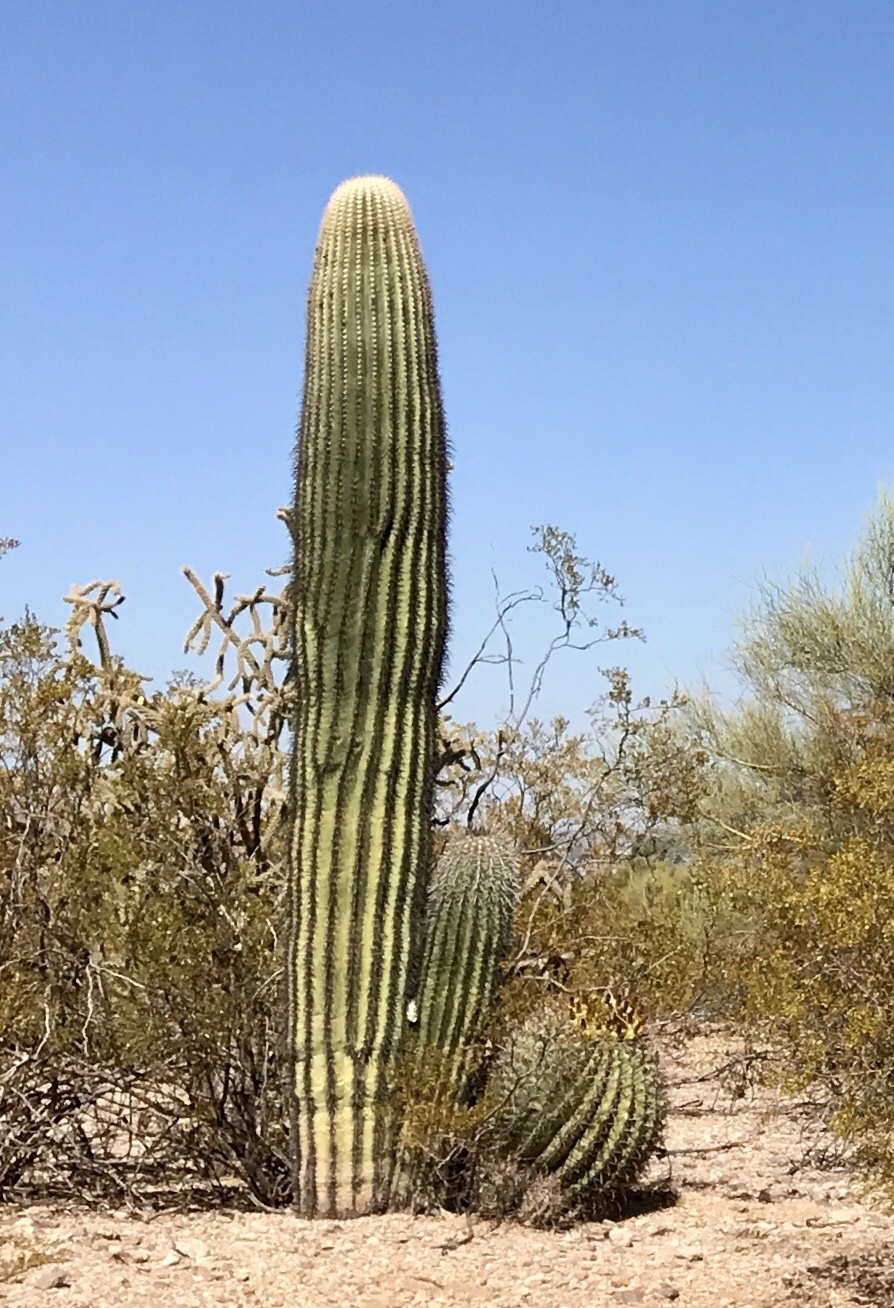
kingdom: Plantae
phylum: Tracheophyta
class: Magnoliopsida
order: Caryophyllales
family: Cactaceae
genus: Ferocactus
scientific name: Ferocactus wislizeni
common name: Candy barrel cactus
